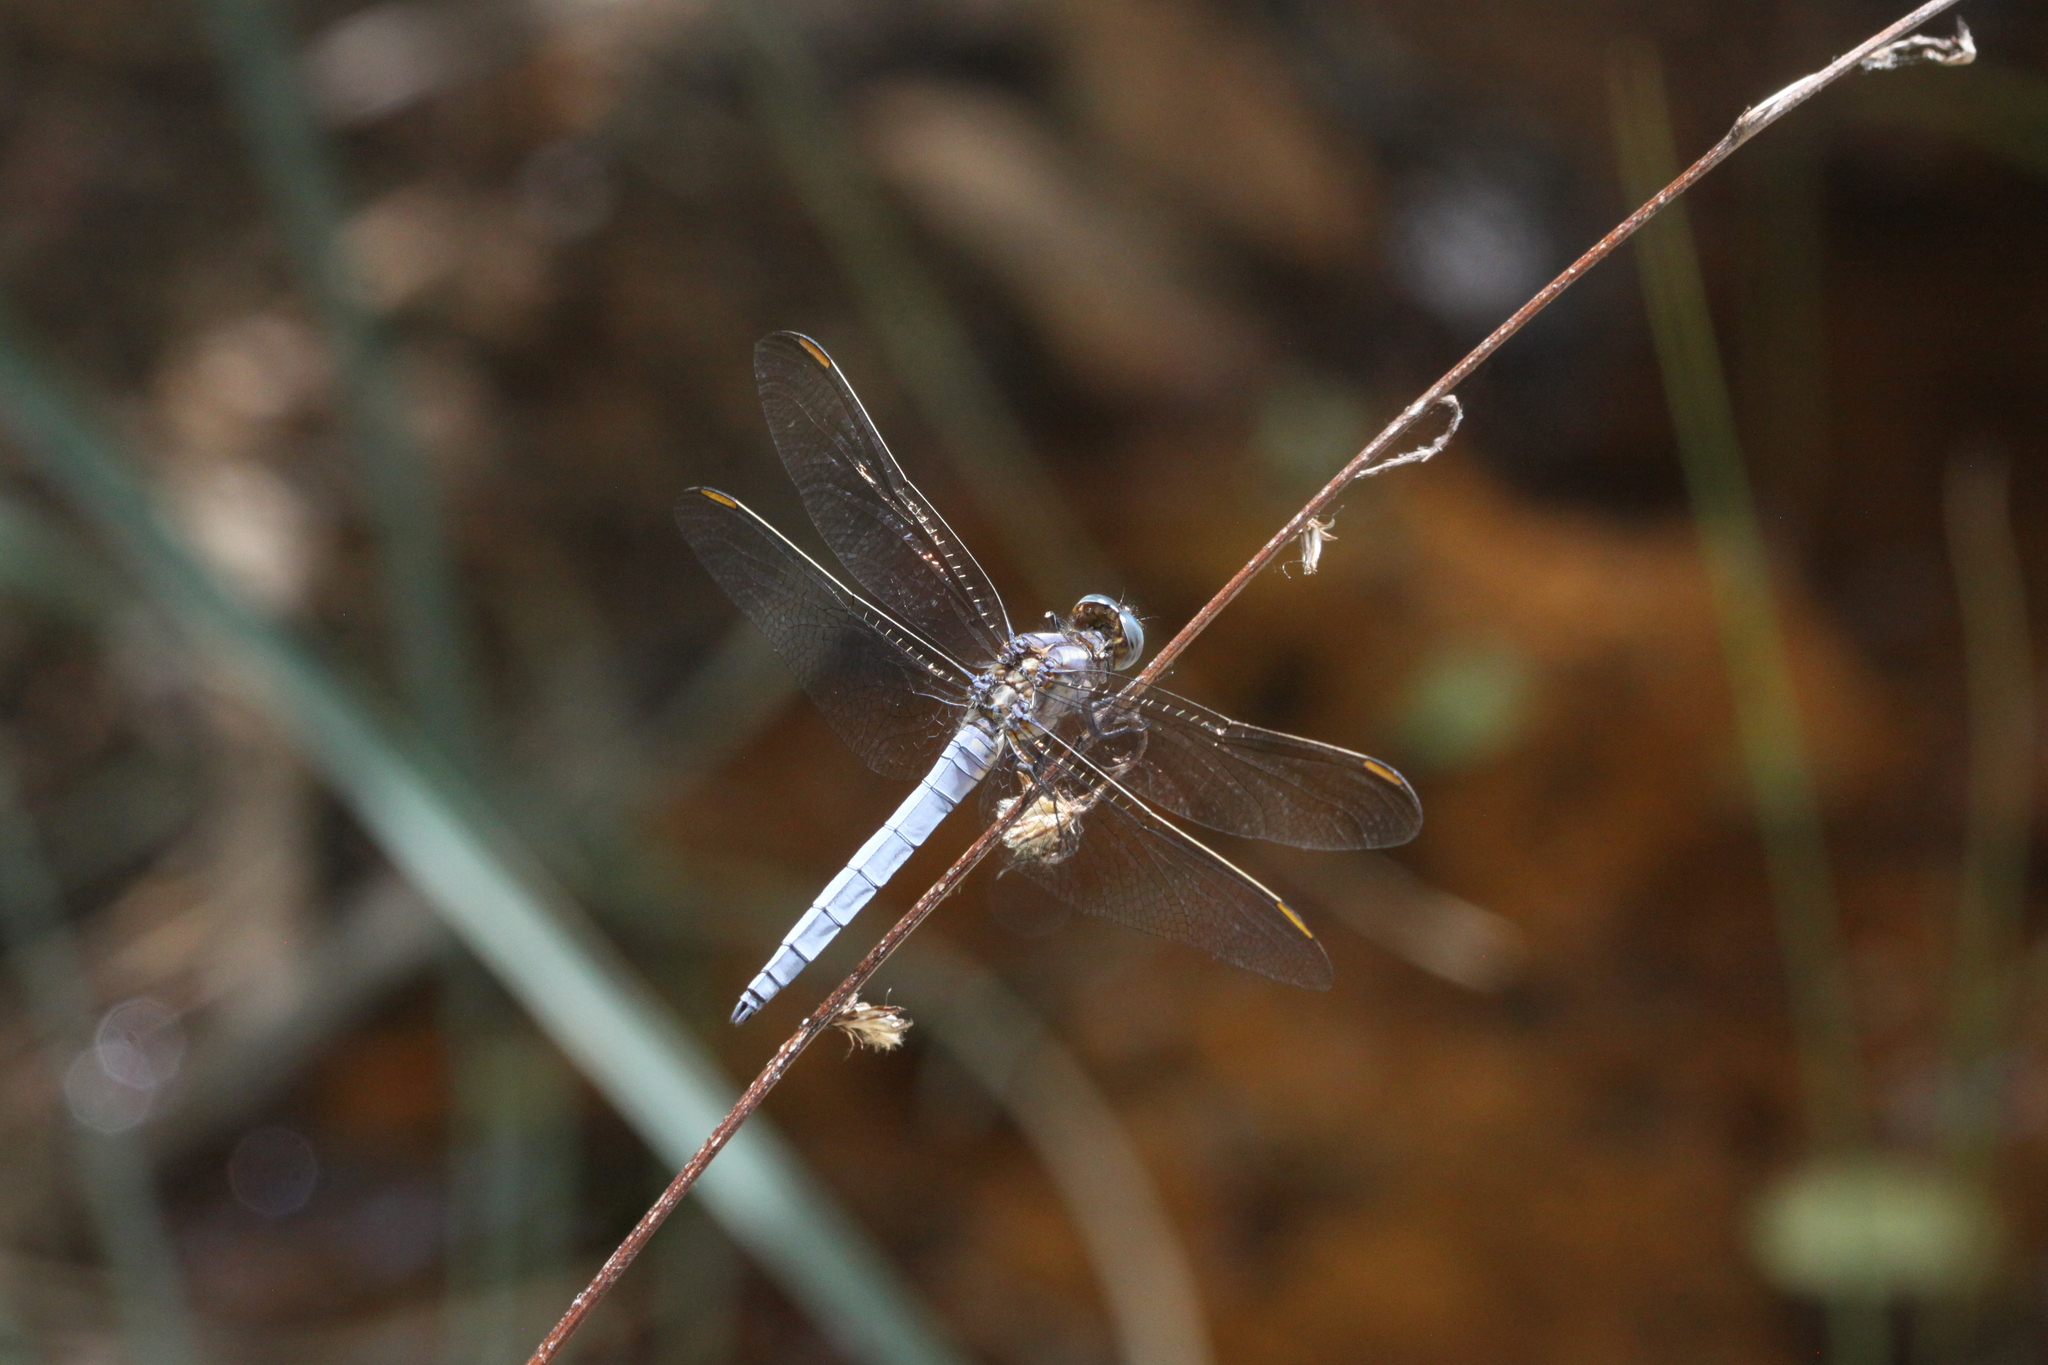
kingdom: Animalia
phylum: Arthropoda
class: Insecta
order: Odonata
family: Libellulidae
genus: Orthetrum
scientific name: Orthetrum coerulescens
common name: Keeled skimmer
